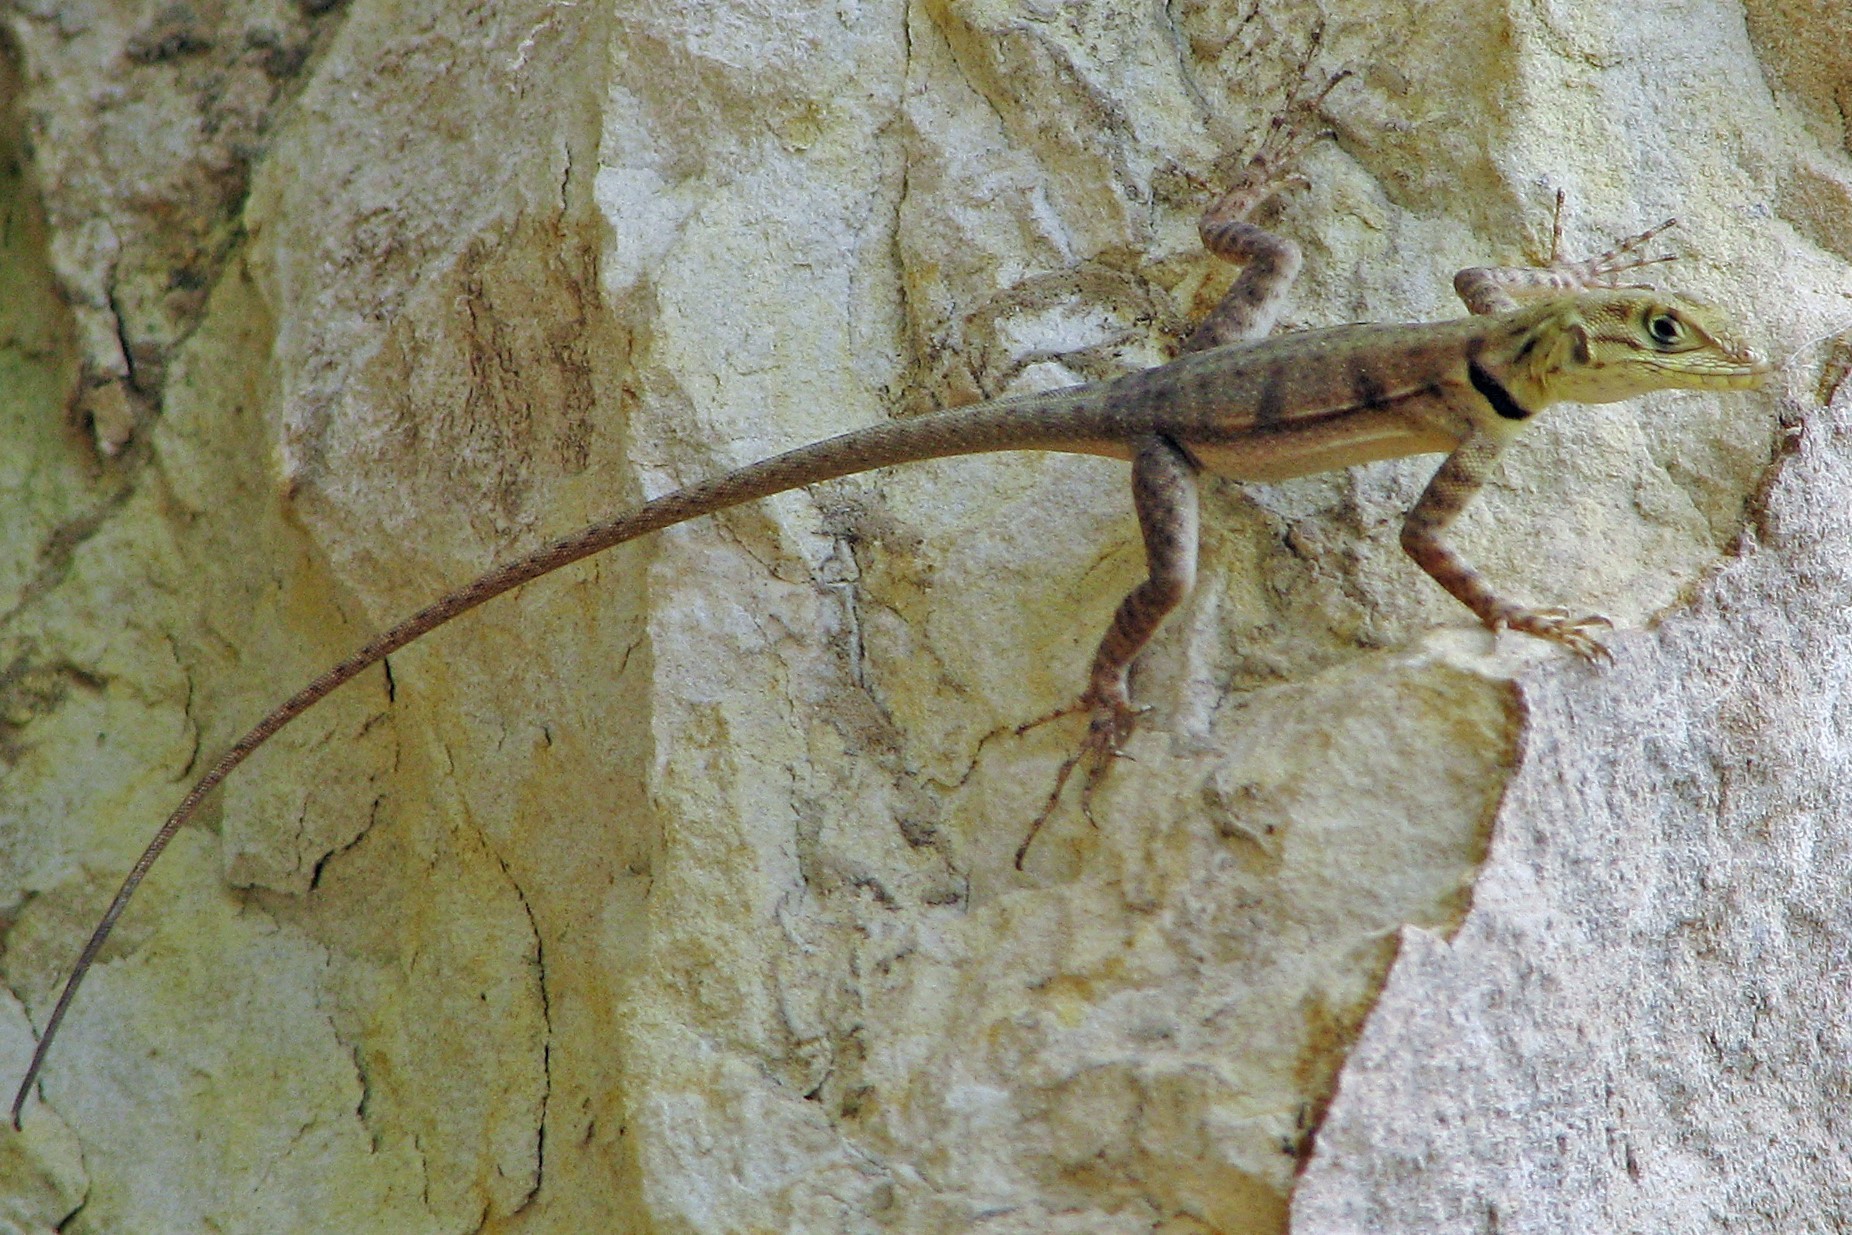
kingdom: Animalia
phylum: Chordata
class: Squamata
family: Tropiduridae
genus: Tropidurus
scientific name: Tropidurus melanopleurus
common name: Black lava lizard
